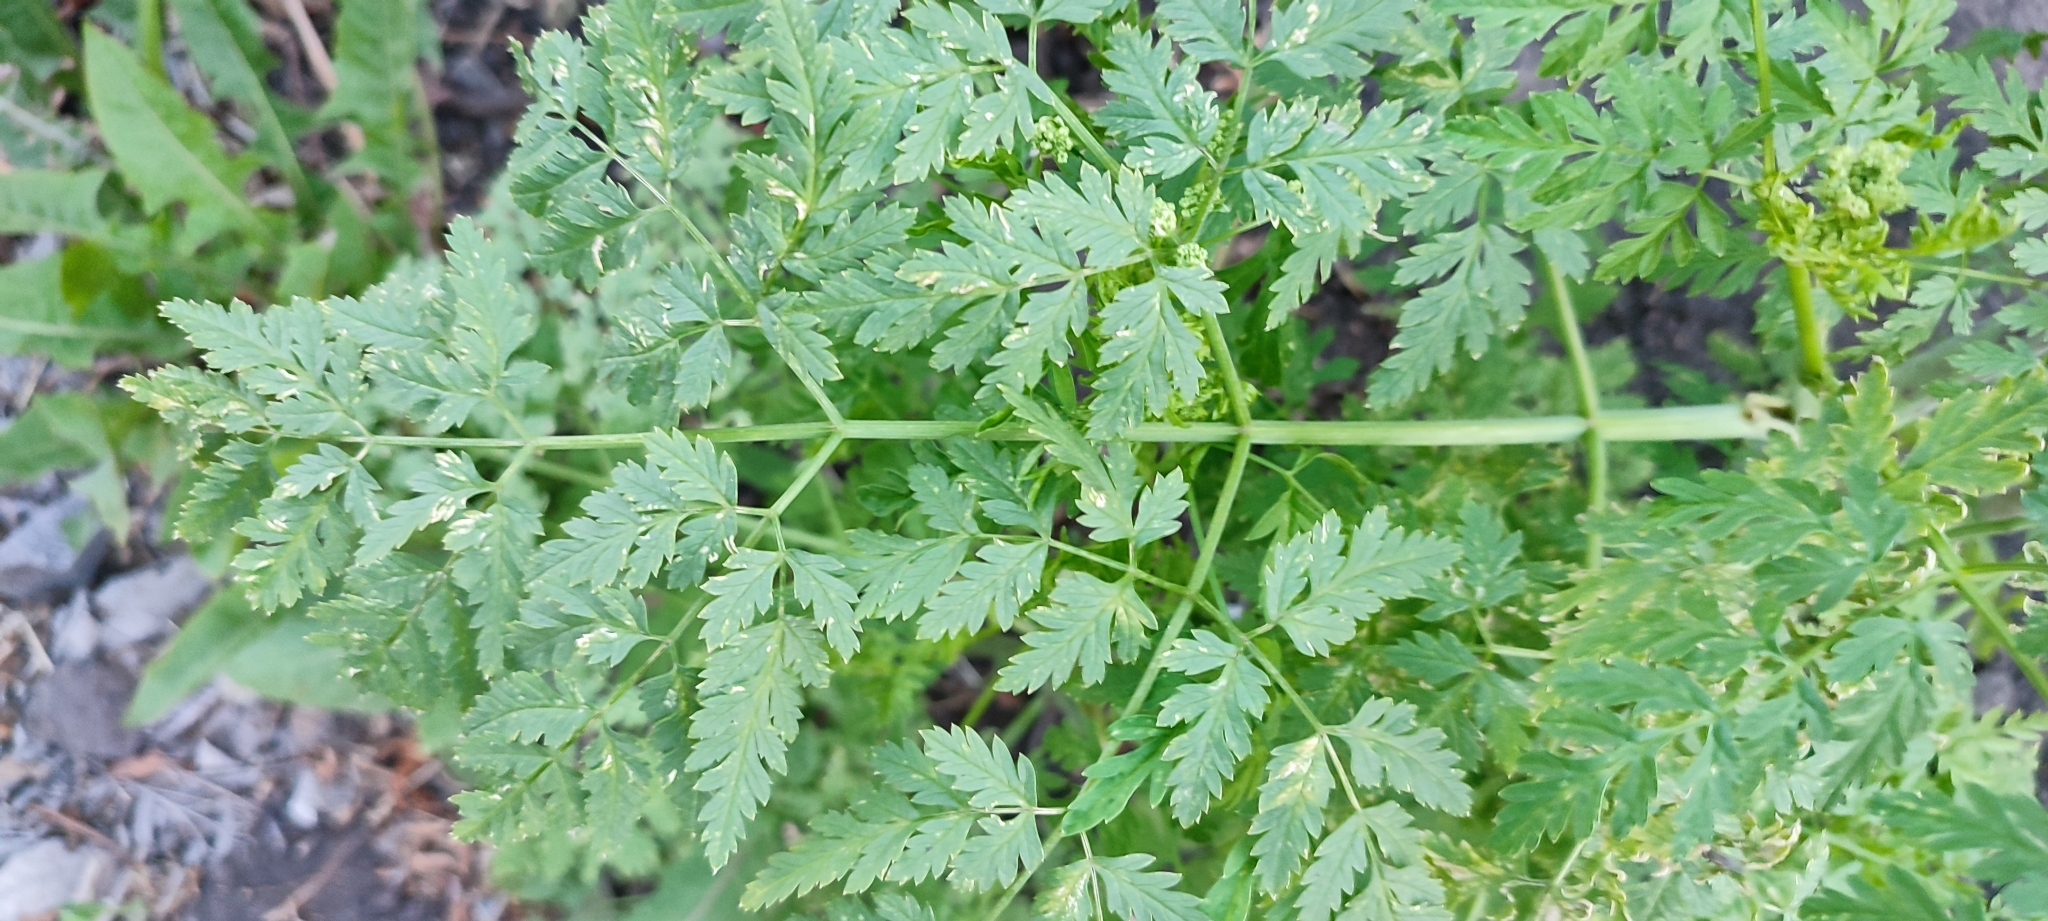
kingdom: Plantae
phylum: Tracheophyta
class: Magnoliopsida
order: Apiales
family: Apiaceae
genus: Conium
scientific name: Conium maculatum
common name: Hemlock
